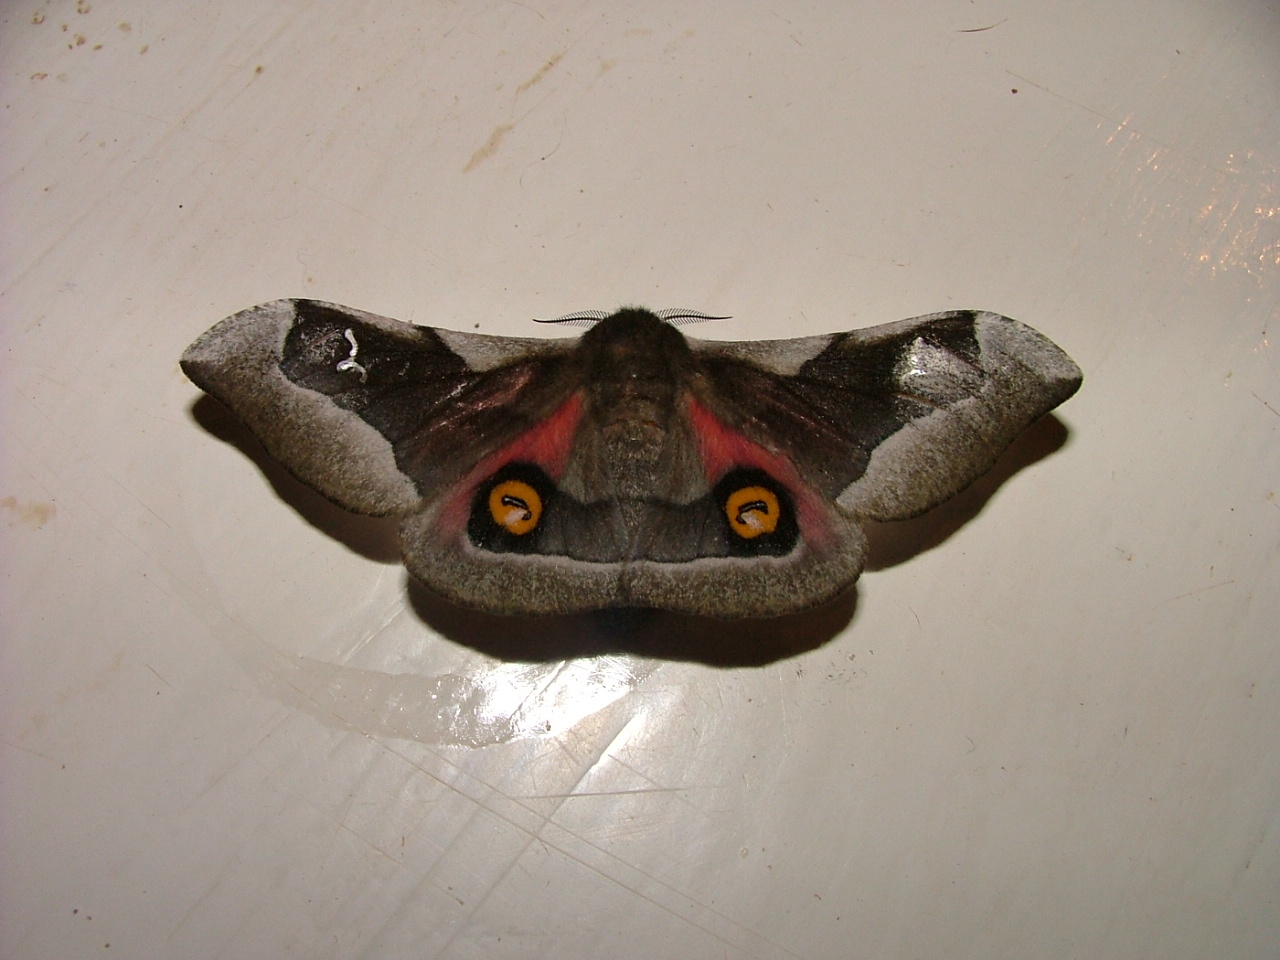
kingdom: Animalia
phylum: Arthropoda
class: Insecta
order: Lepidoptera
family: Saturniidae
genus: Ludia
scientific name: Ludia delegorguei
